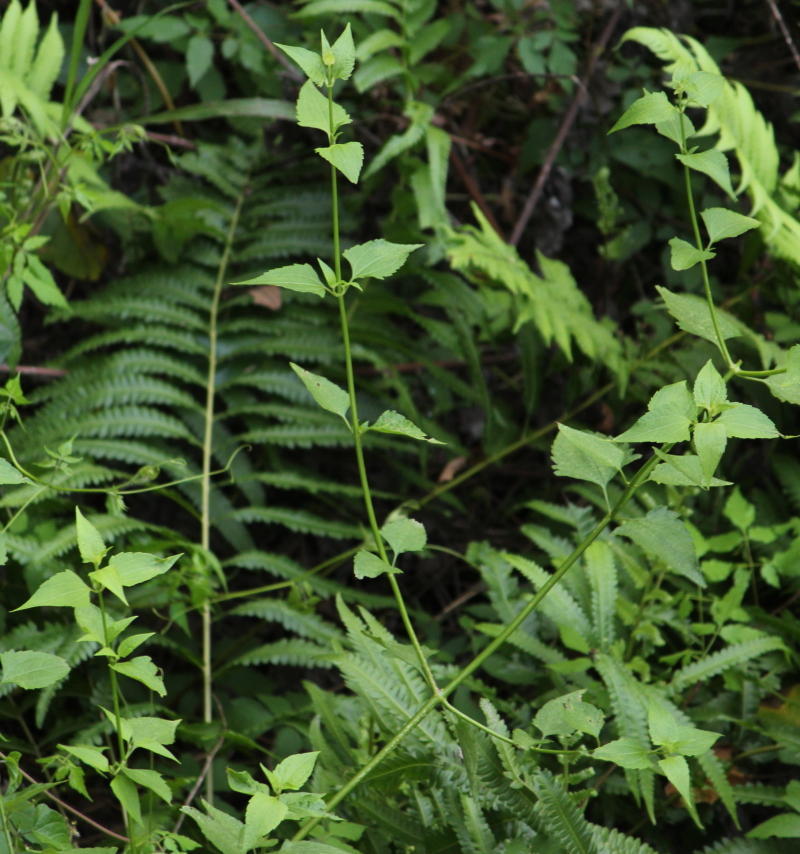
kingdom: Plantae
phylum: Tracheophyta
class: Magnoliopsida
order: Asterales
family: Asteraceae
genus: Chromolaena
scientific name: Chromolaena odorata
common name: Siamweed
